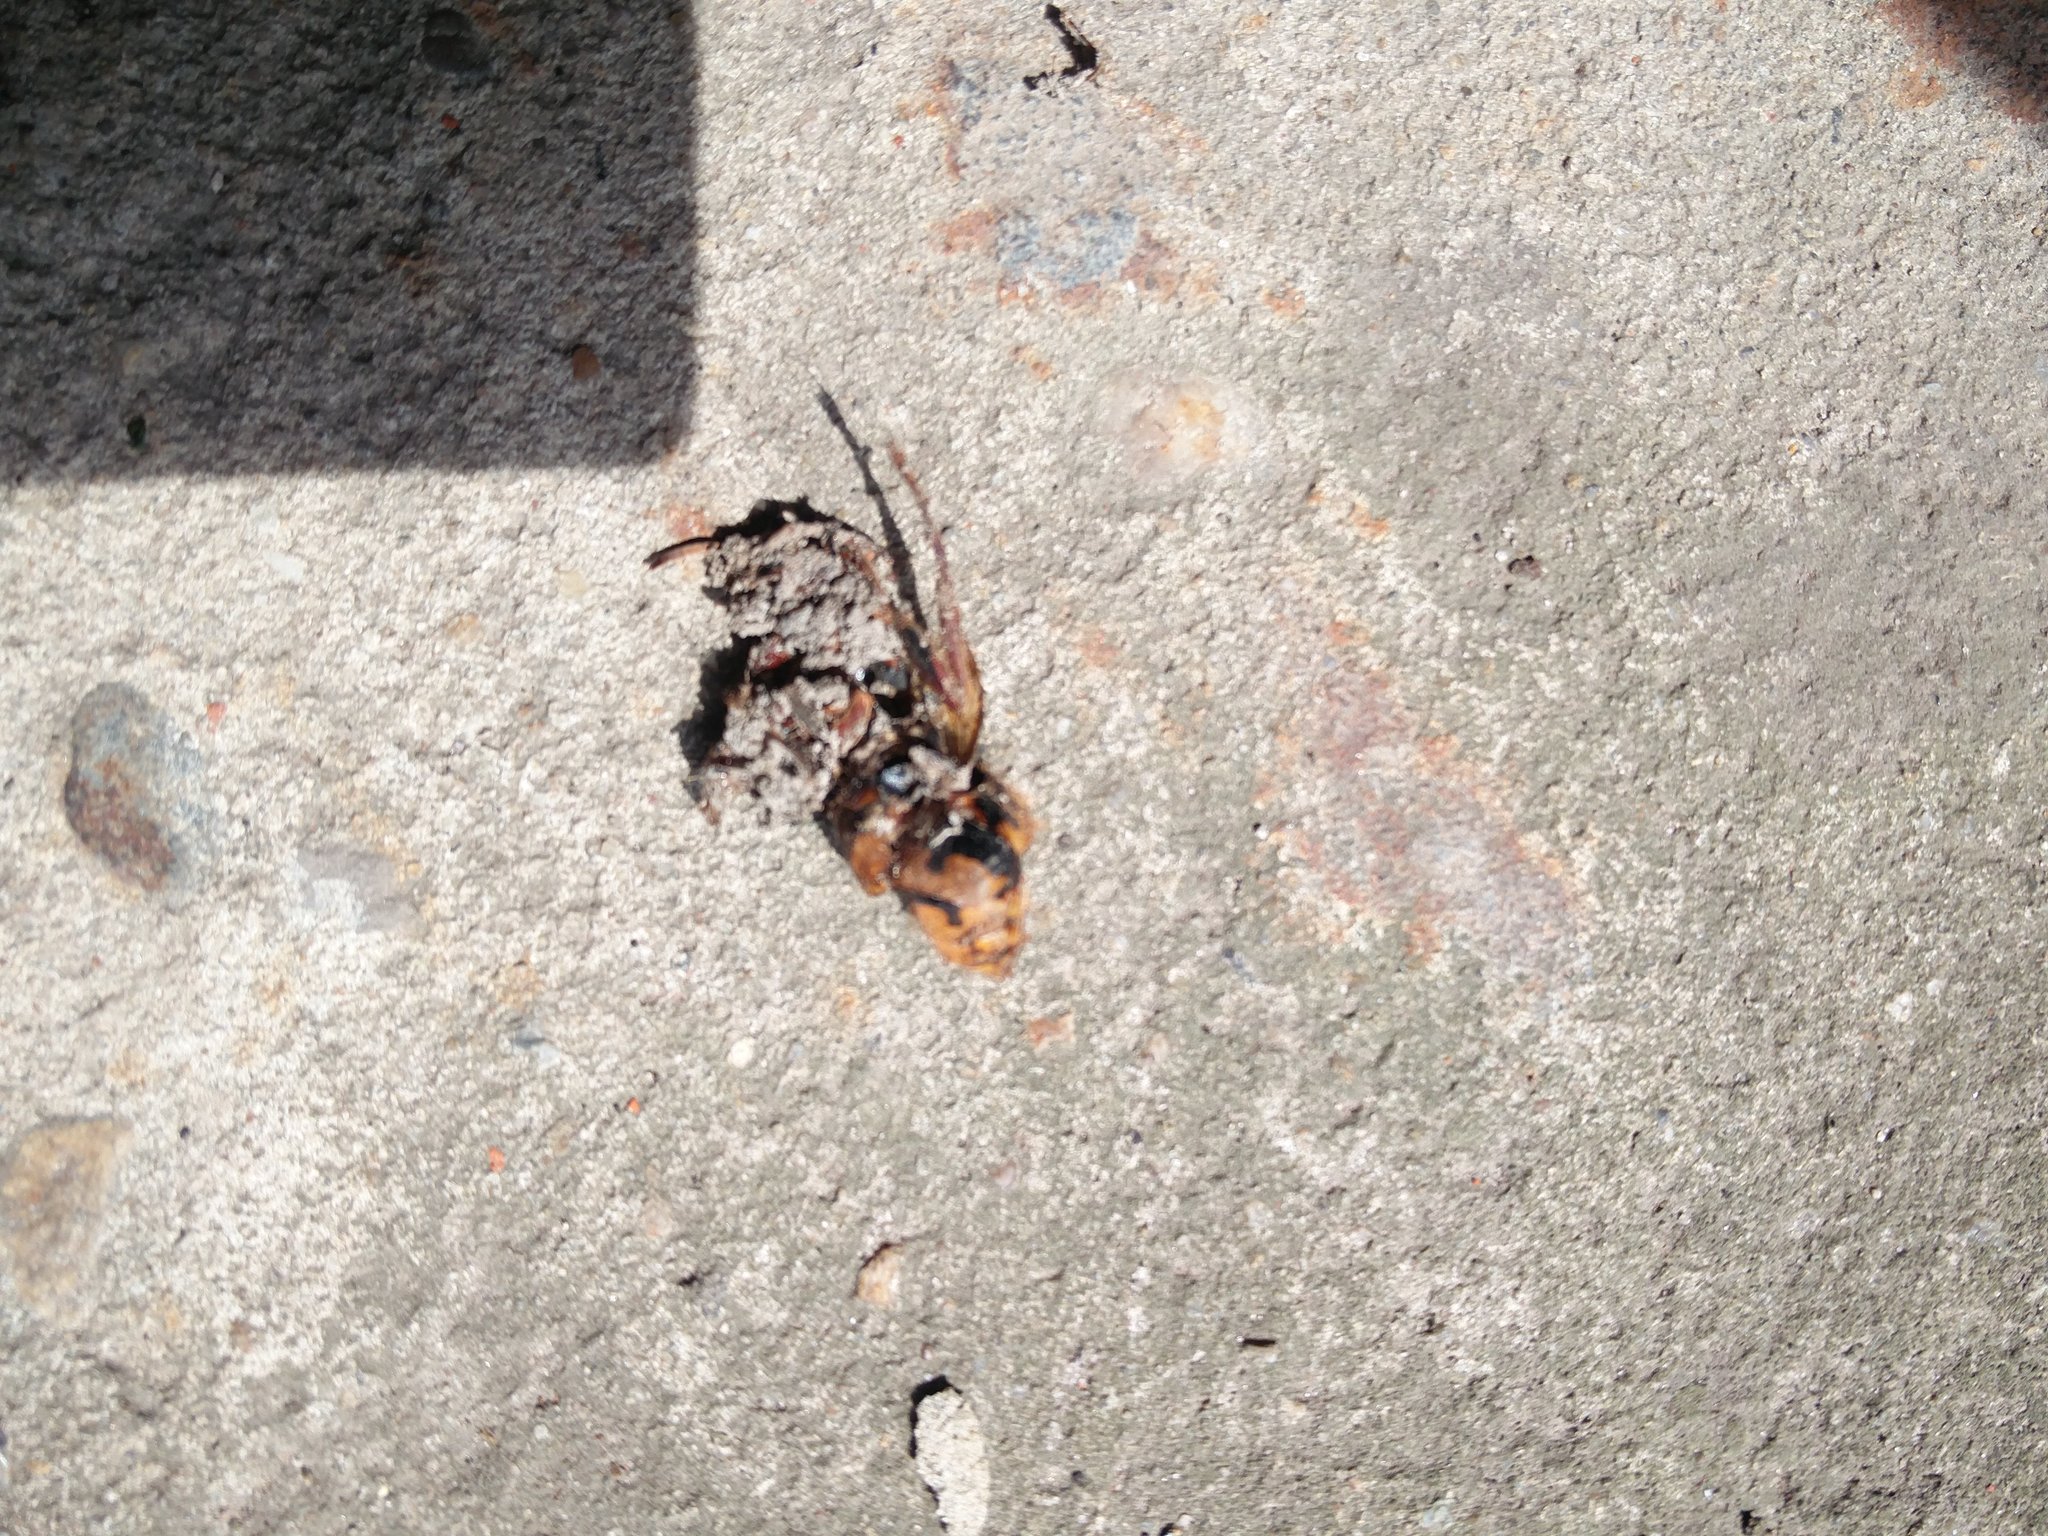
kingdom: Animalia
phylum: Arthropoda
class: Insecta
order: Hymenoptera
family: Vespidae
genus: Vespa
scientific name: Vespa crabro
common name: Hornet
